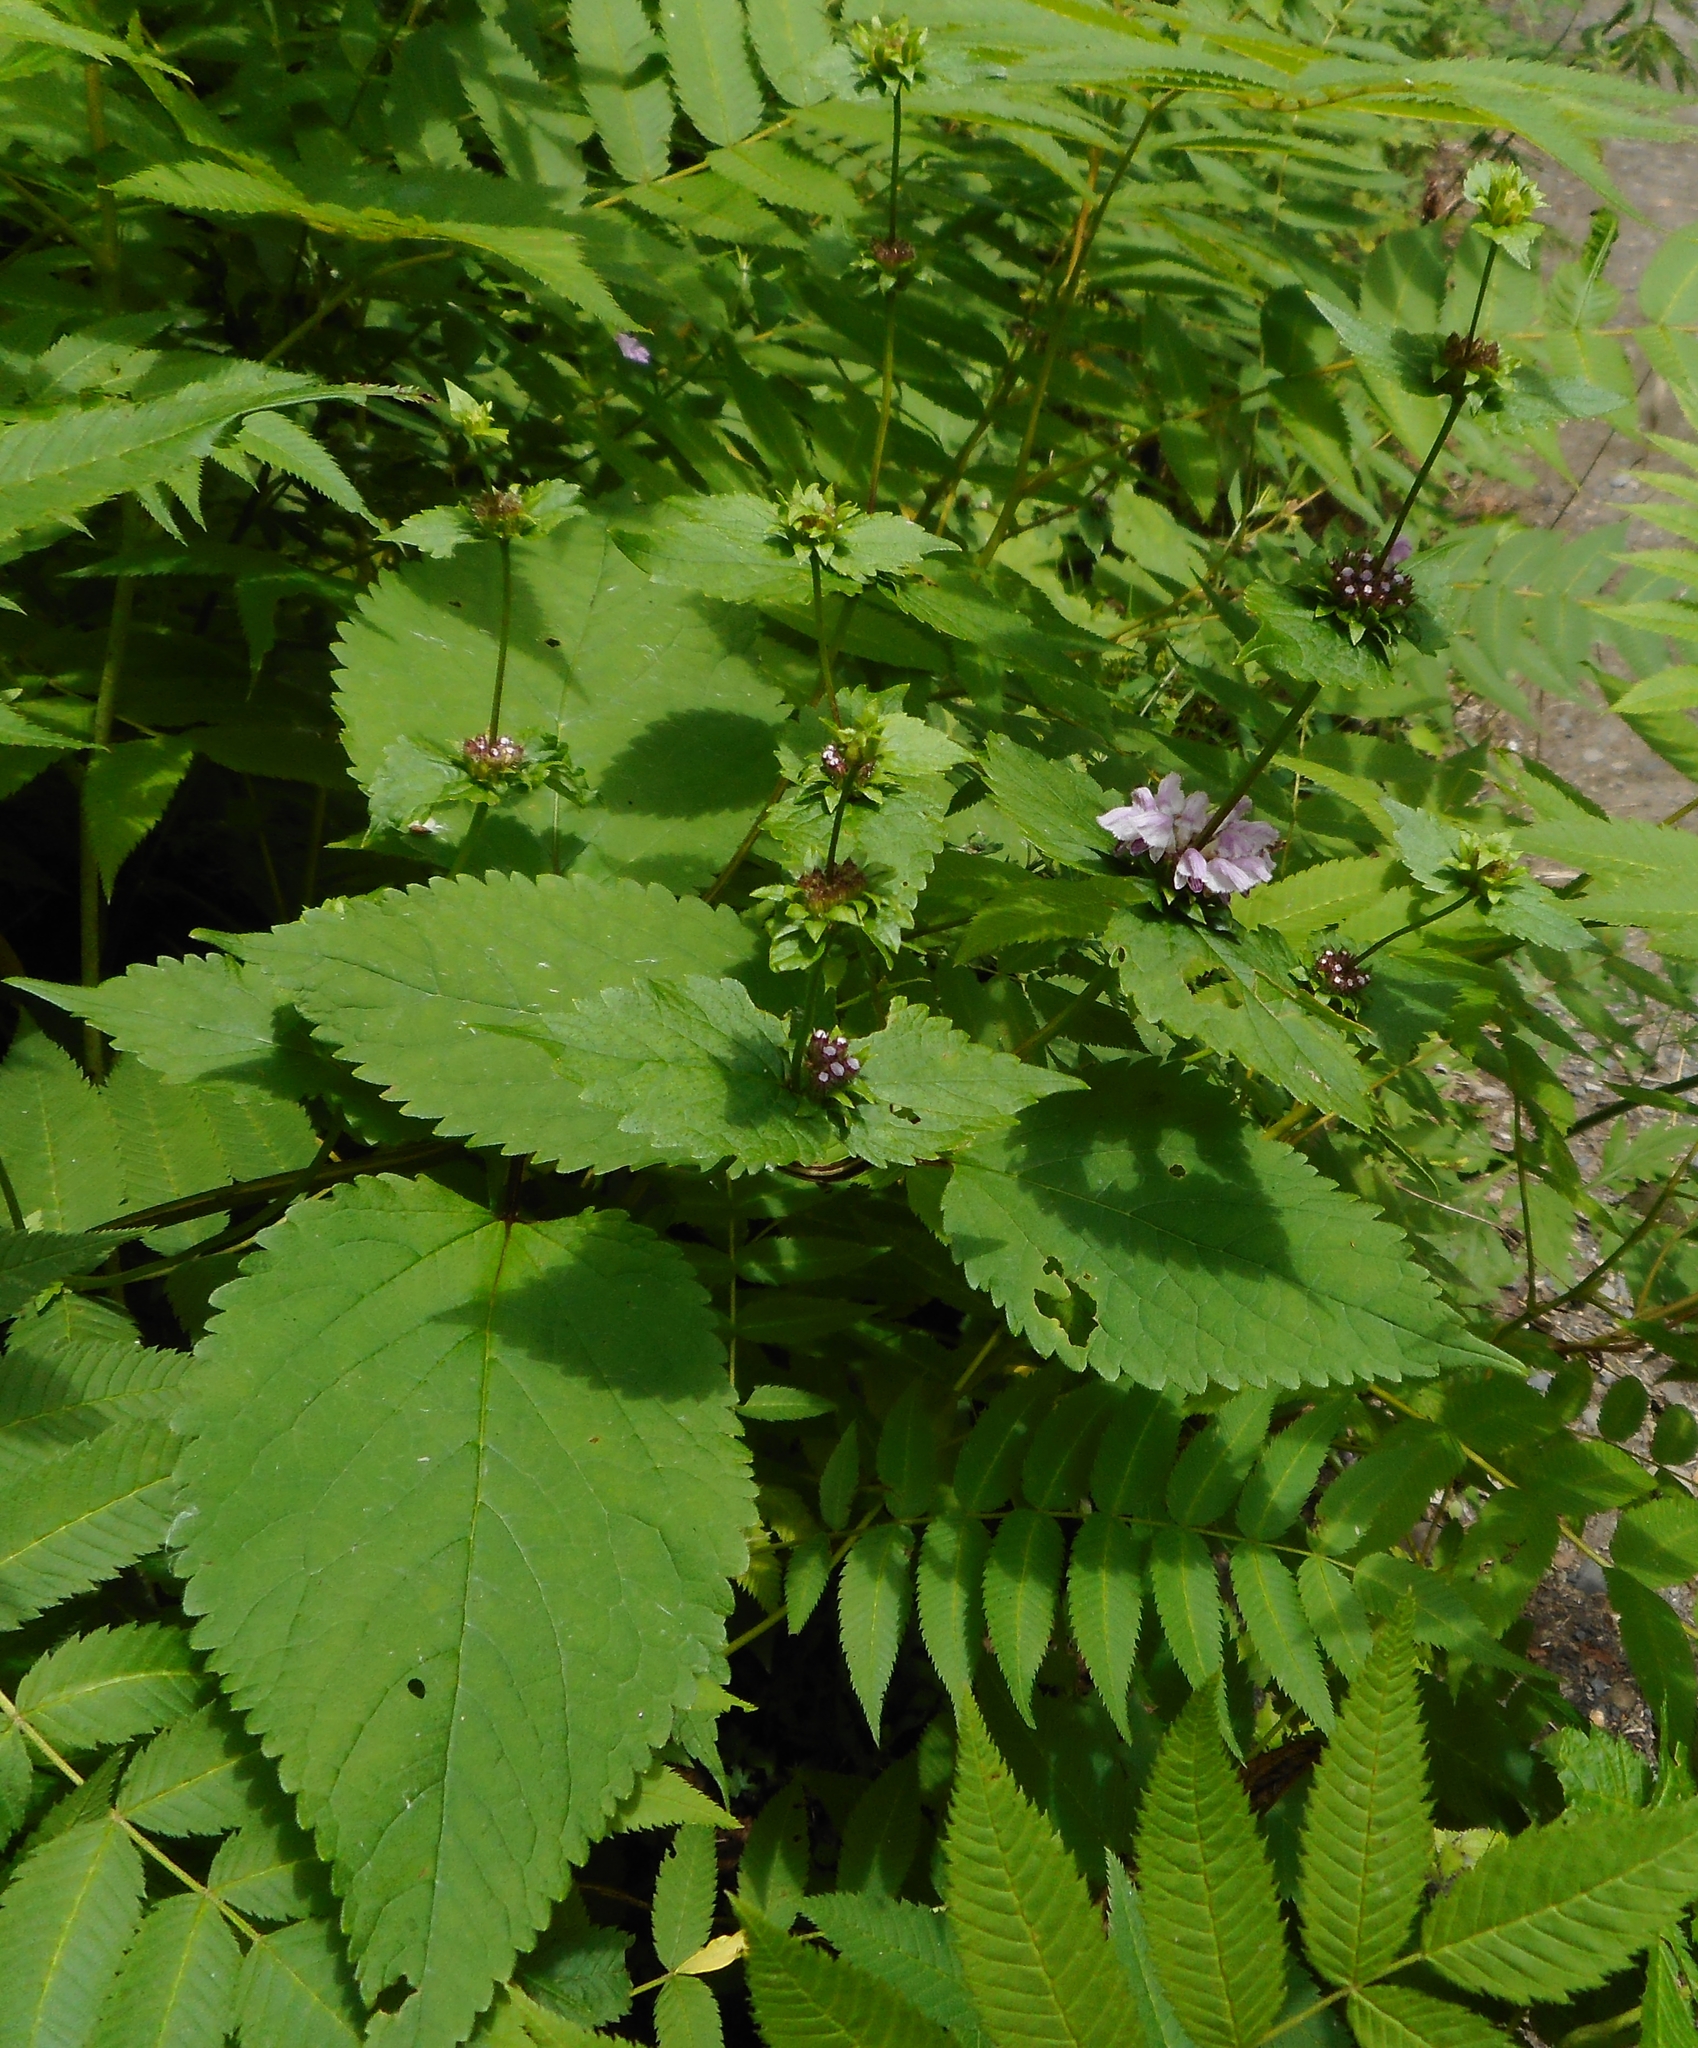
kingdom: Plantae
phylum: Tracheophyta
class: Magnoliopsida
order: Lamiales
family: Lamiaceae
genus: Phlomoides
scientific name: Phlomoides maximowiczii
